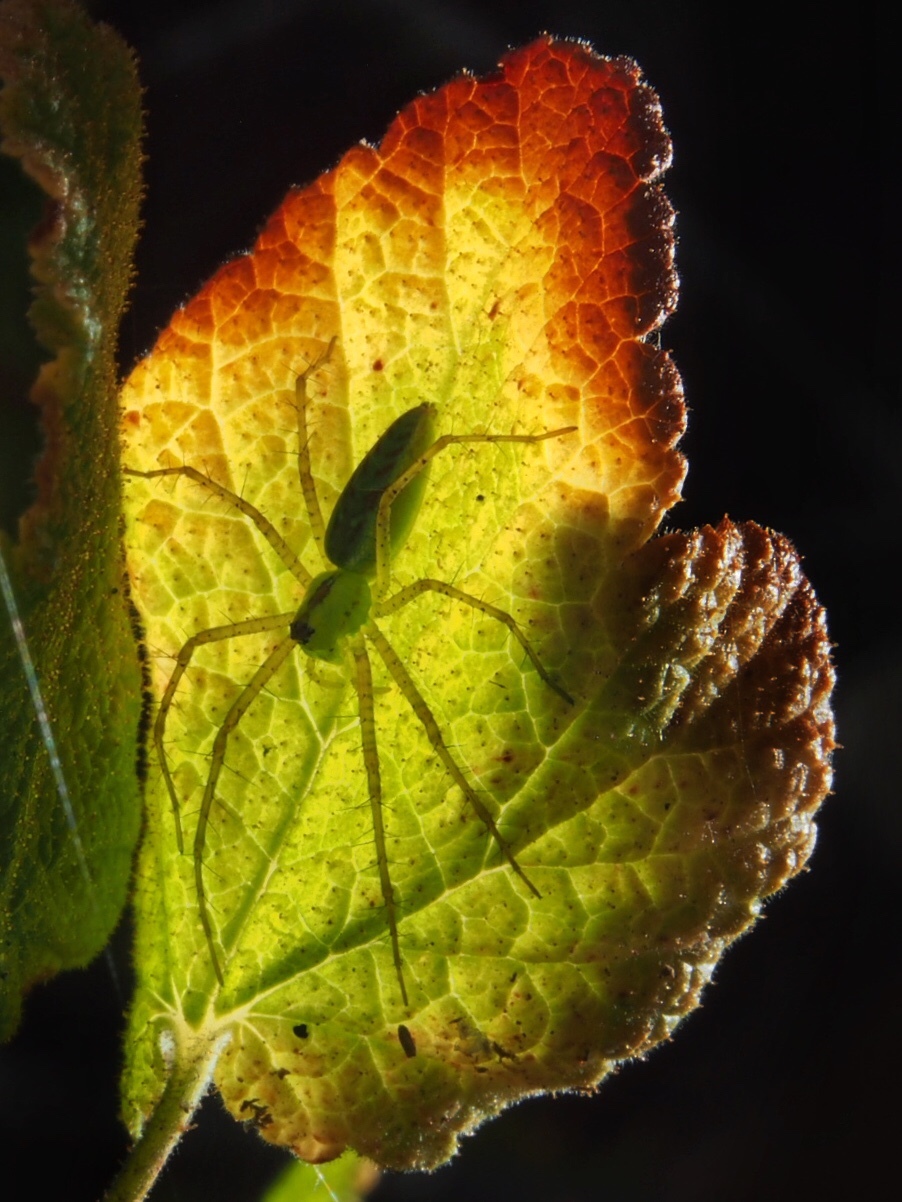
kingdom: Animalia
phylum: Arthropoda
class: Arachnida
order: Araneae
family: Oxyopidae
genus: Peucetia
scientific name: Peucetia viridans
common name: Lynx spiders
